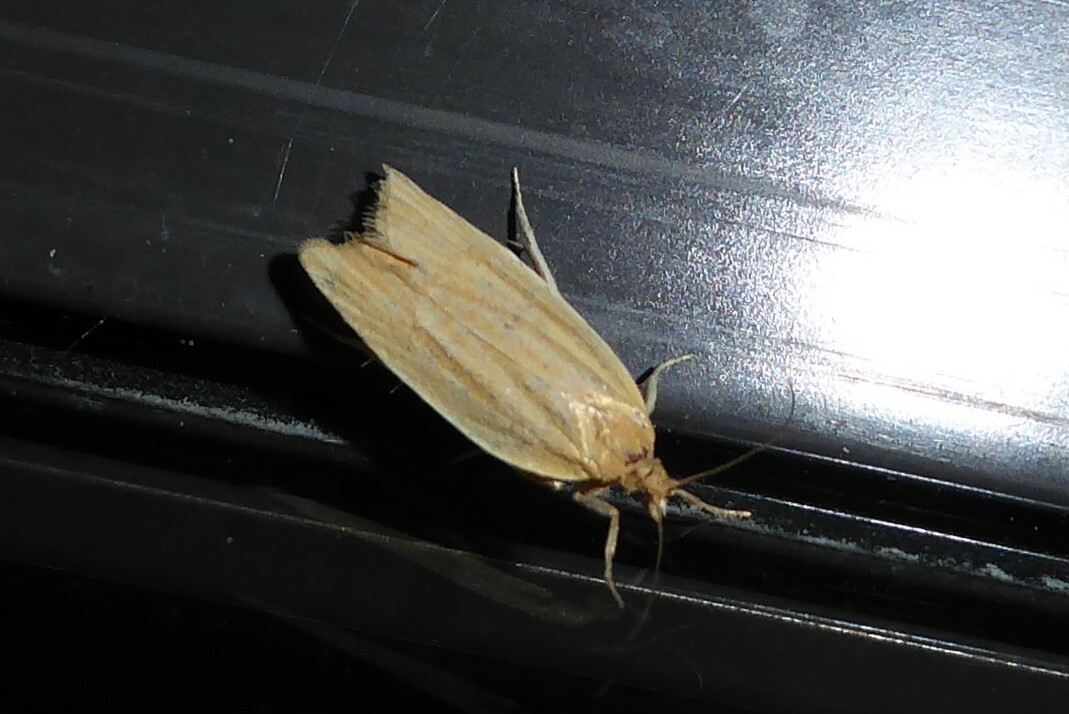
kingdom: Animalia
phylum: Arthropoda
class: Insecta
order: Lepidoptera
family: Tortricidae
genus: Clepsis
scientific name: Clepsis
